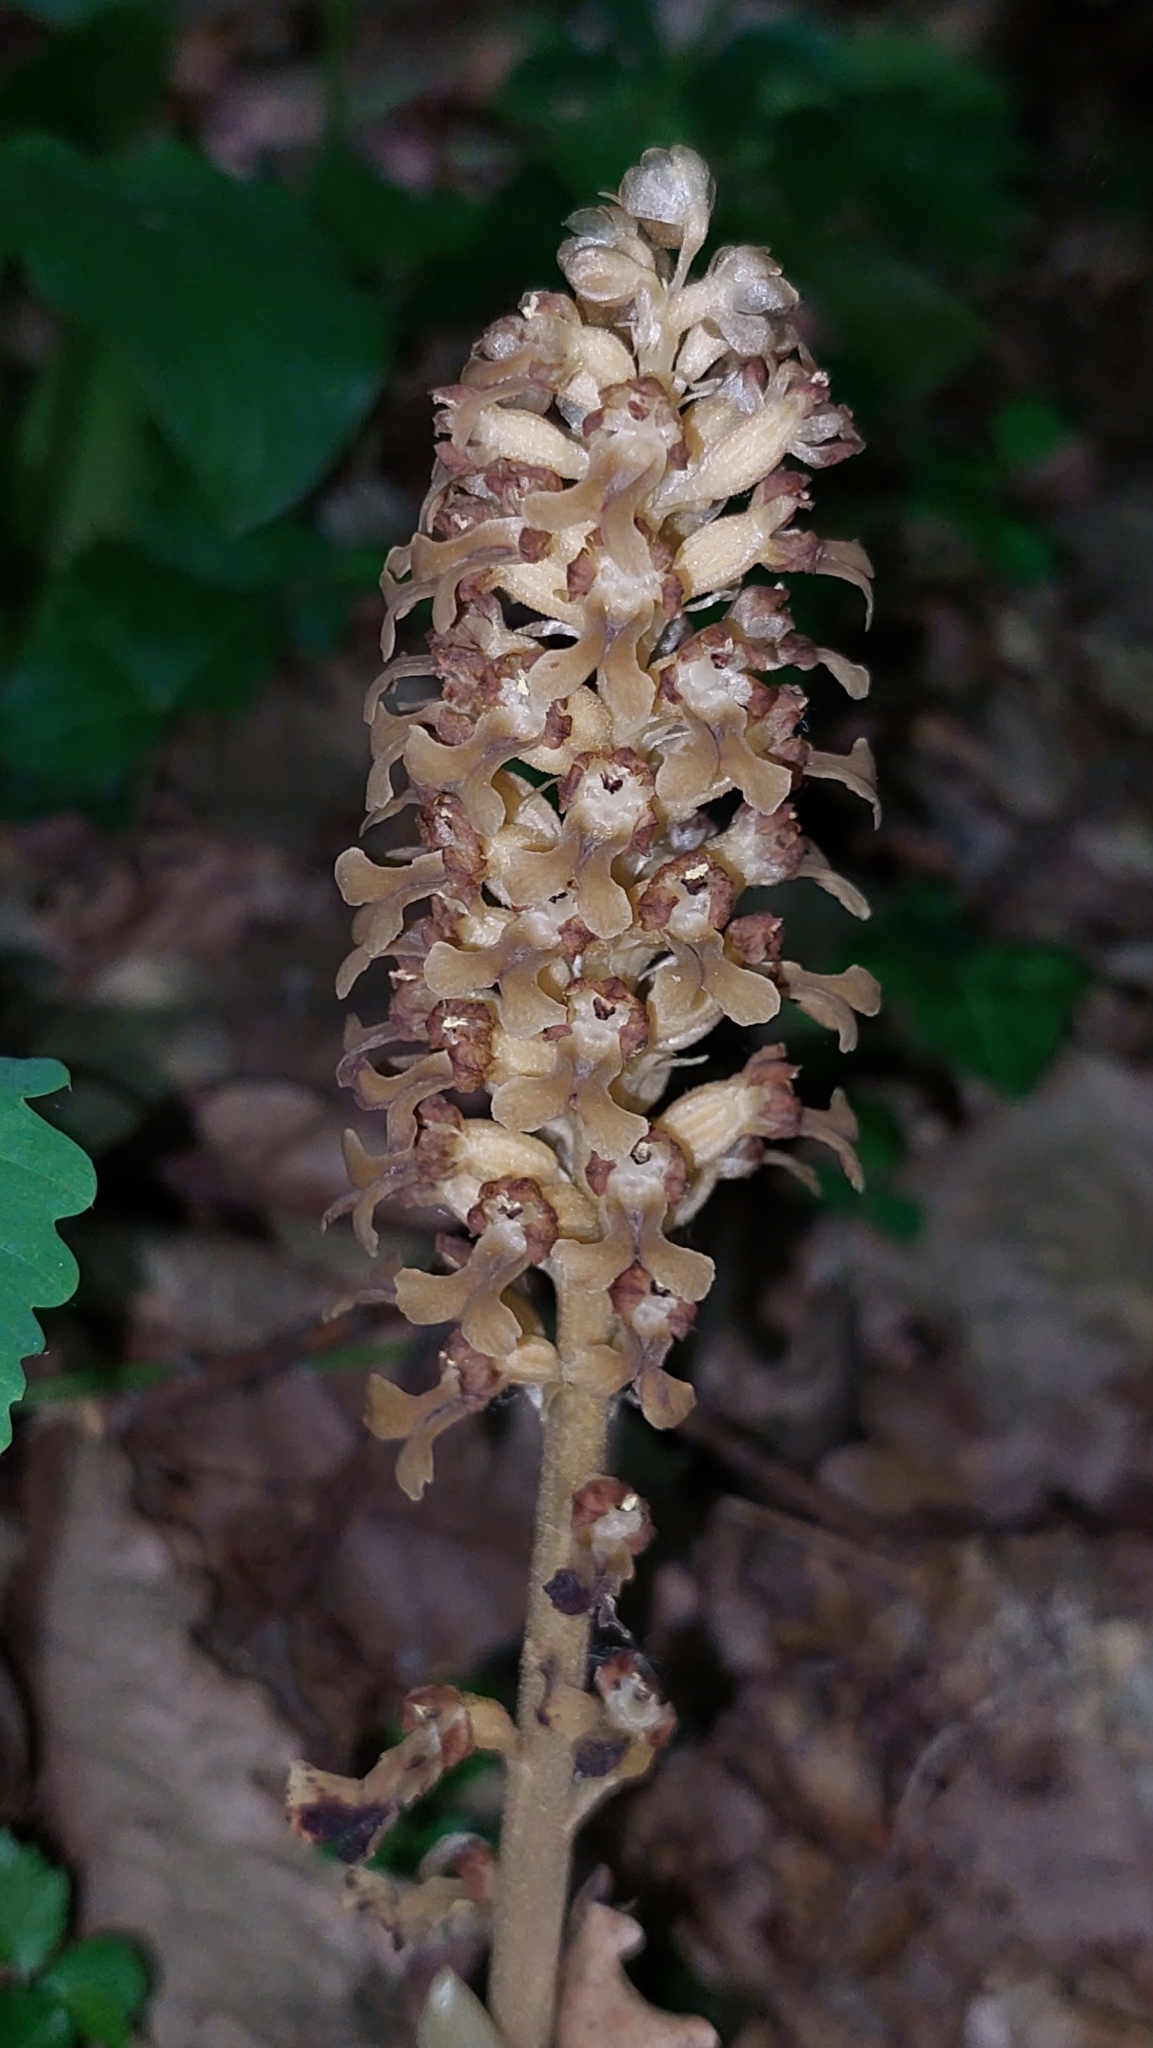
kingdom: Plantae
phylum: Tracheophyta
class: Liliopsida
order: Asparagales
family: Orchidaceae
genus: Neottia
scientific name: Neottia nidus-avis
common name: Bird's-nest orchid
